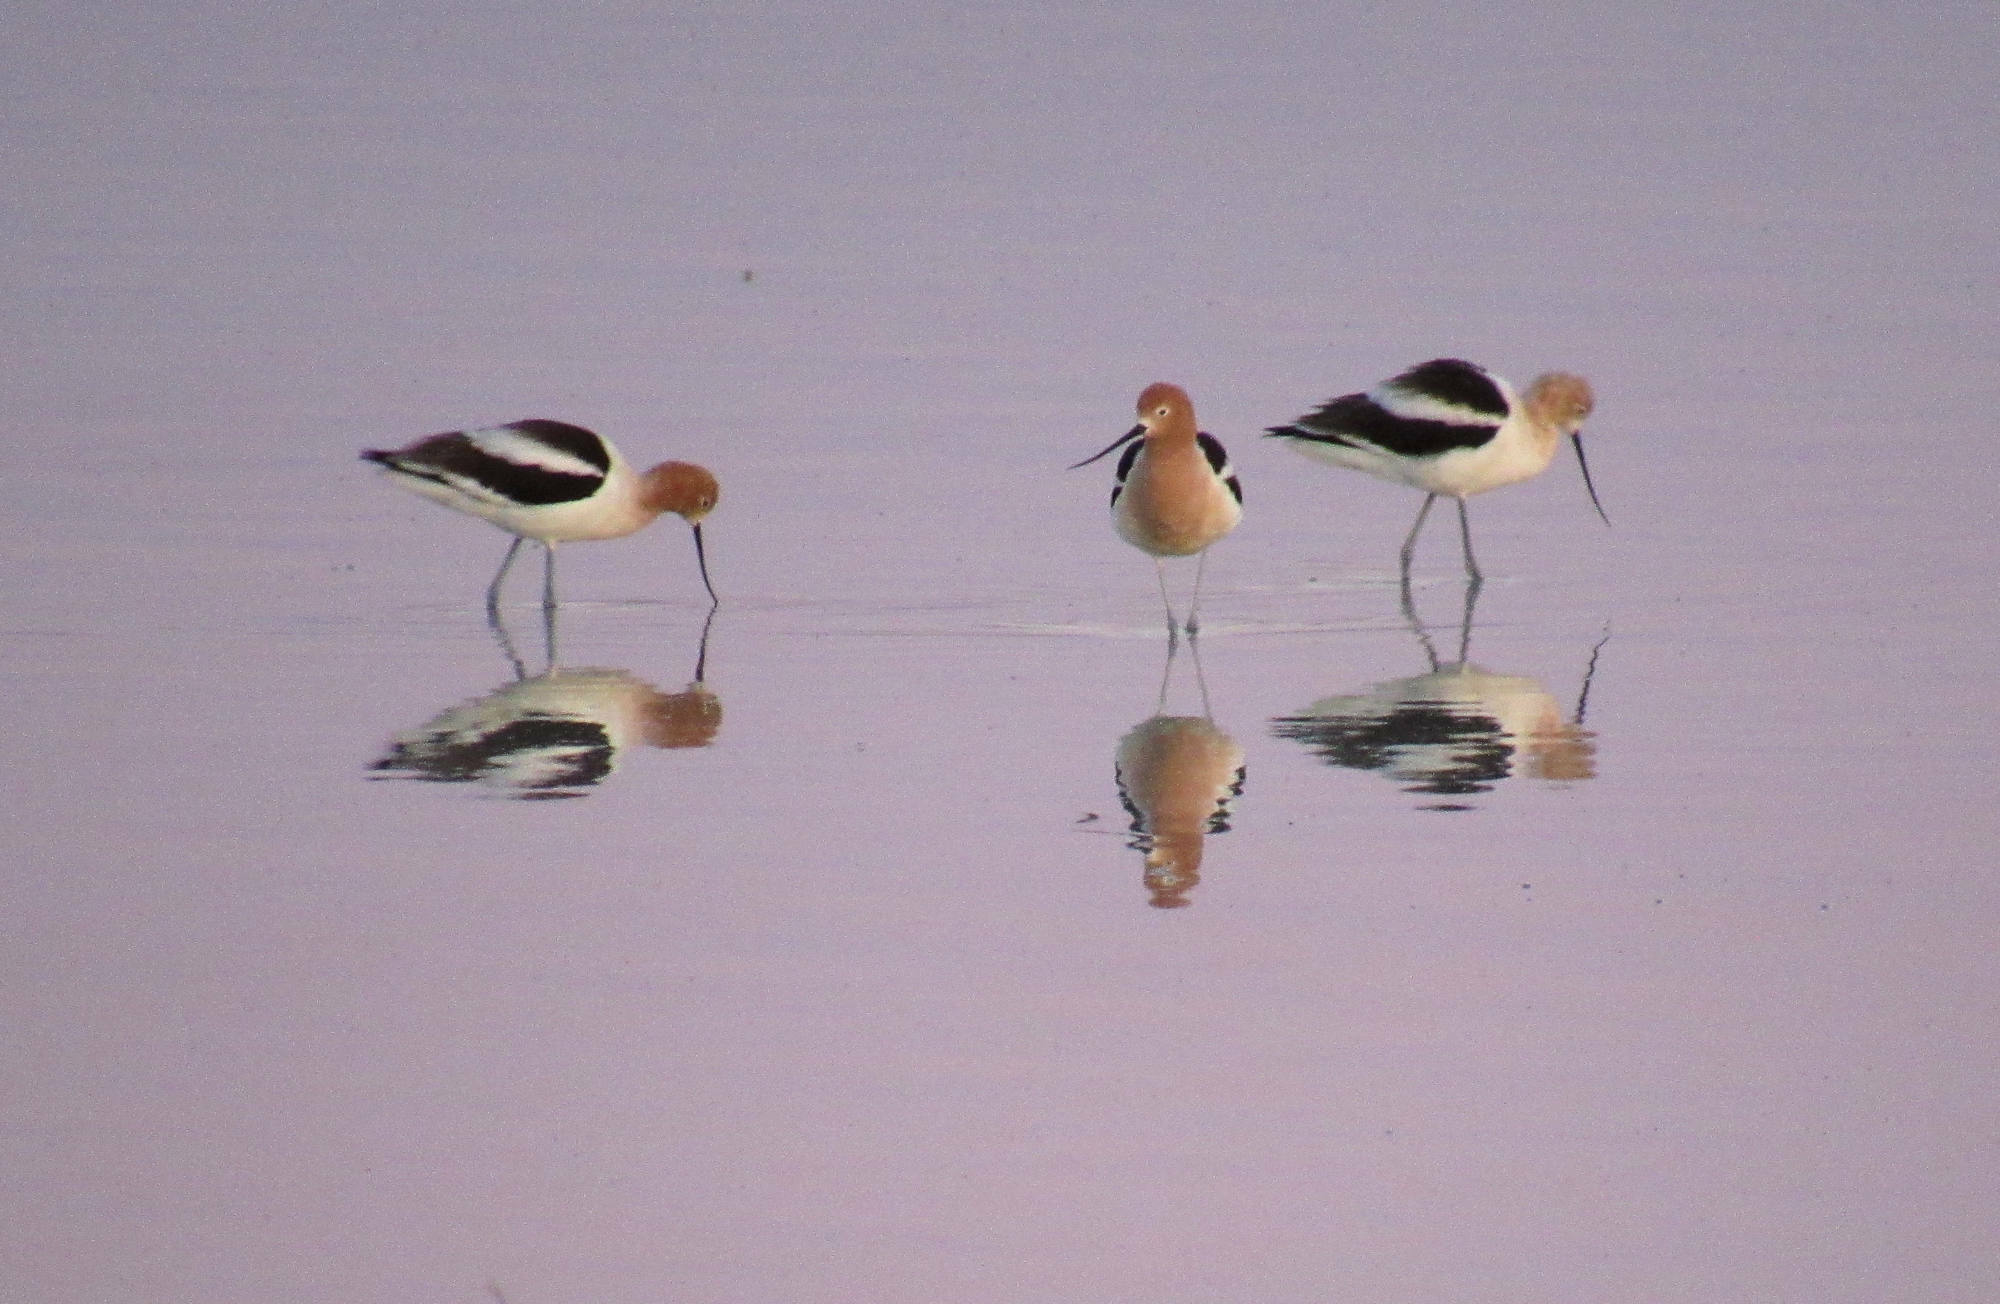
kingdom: Animalia
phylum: Chordata
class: Aves
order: Charadriiformes
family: Recurvirostridae
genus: Recurvirostra
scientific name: Recurvirostra americana
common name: American avocet
